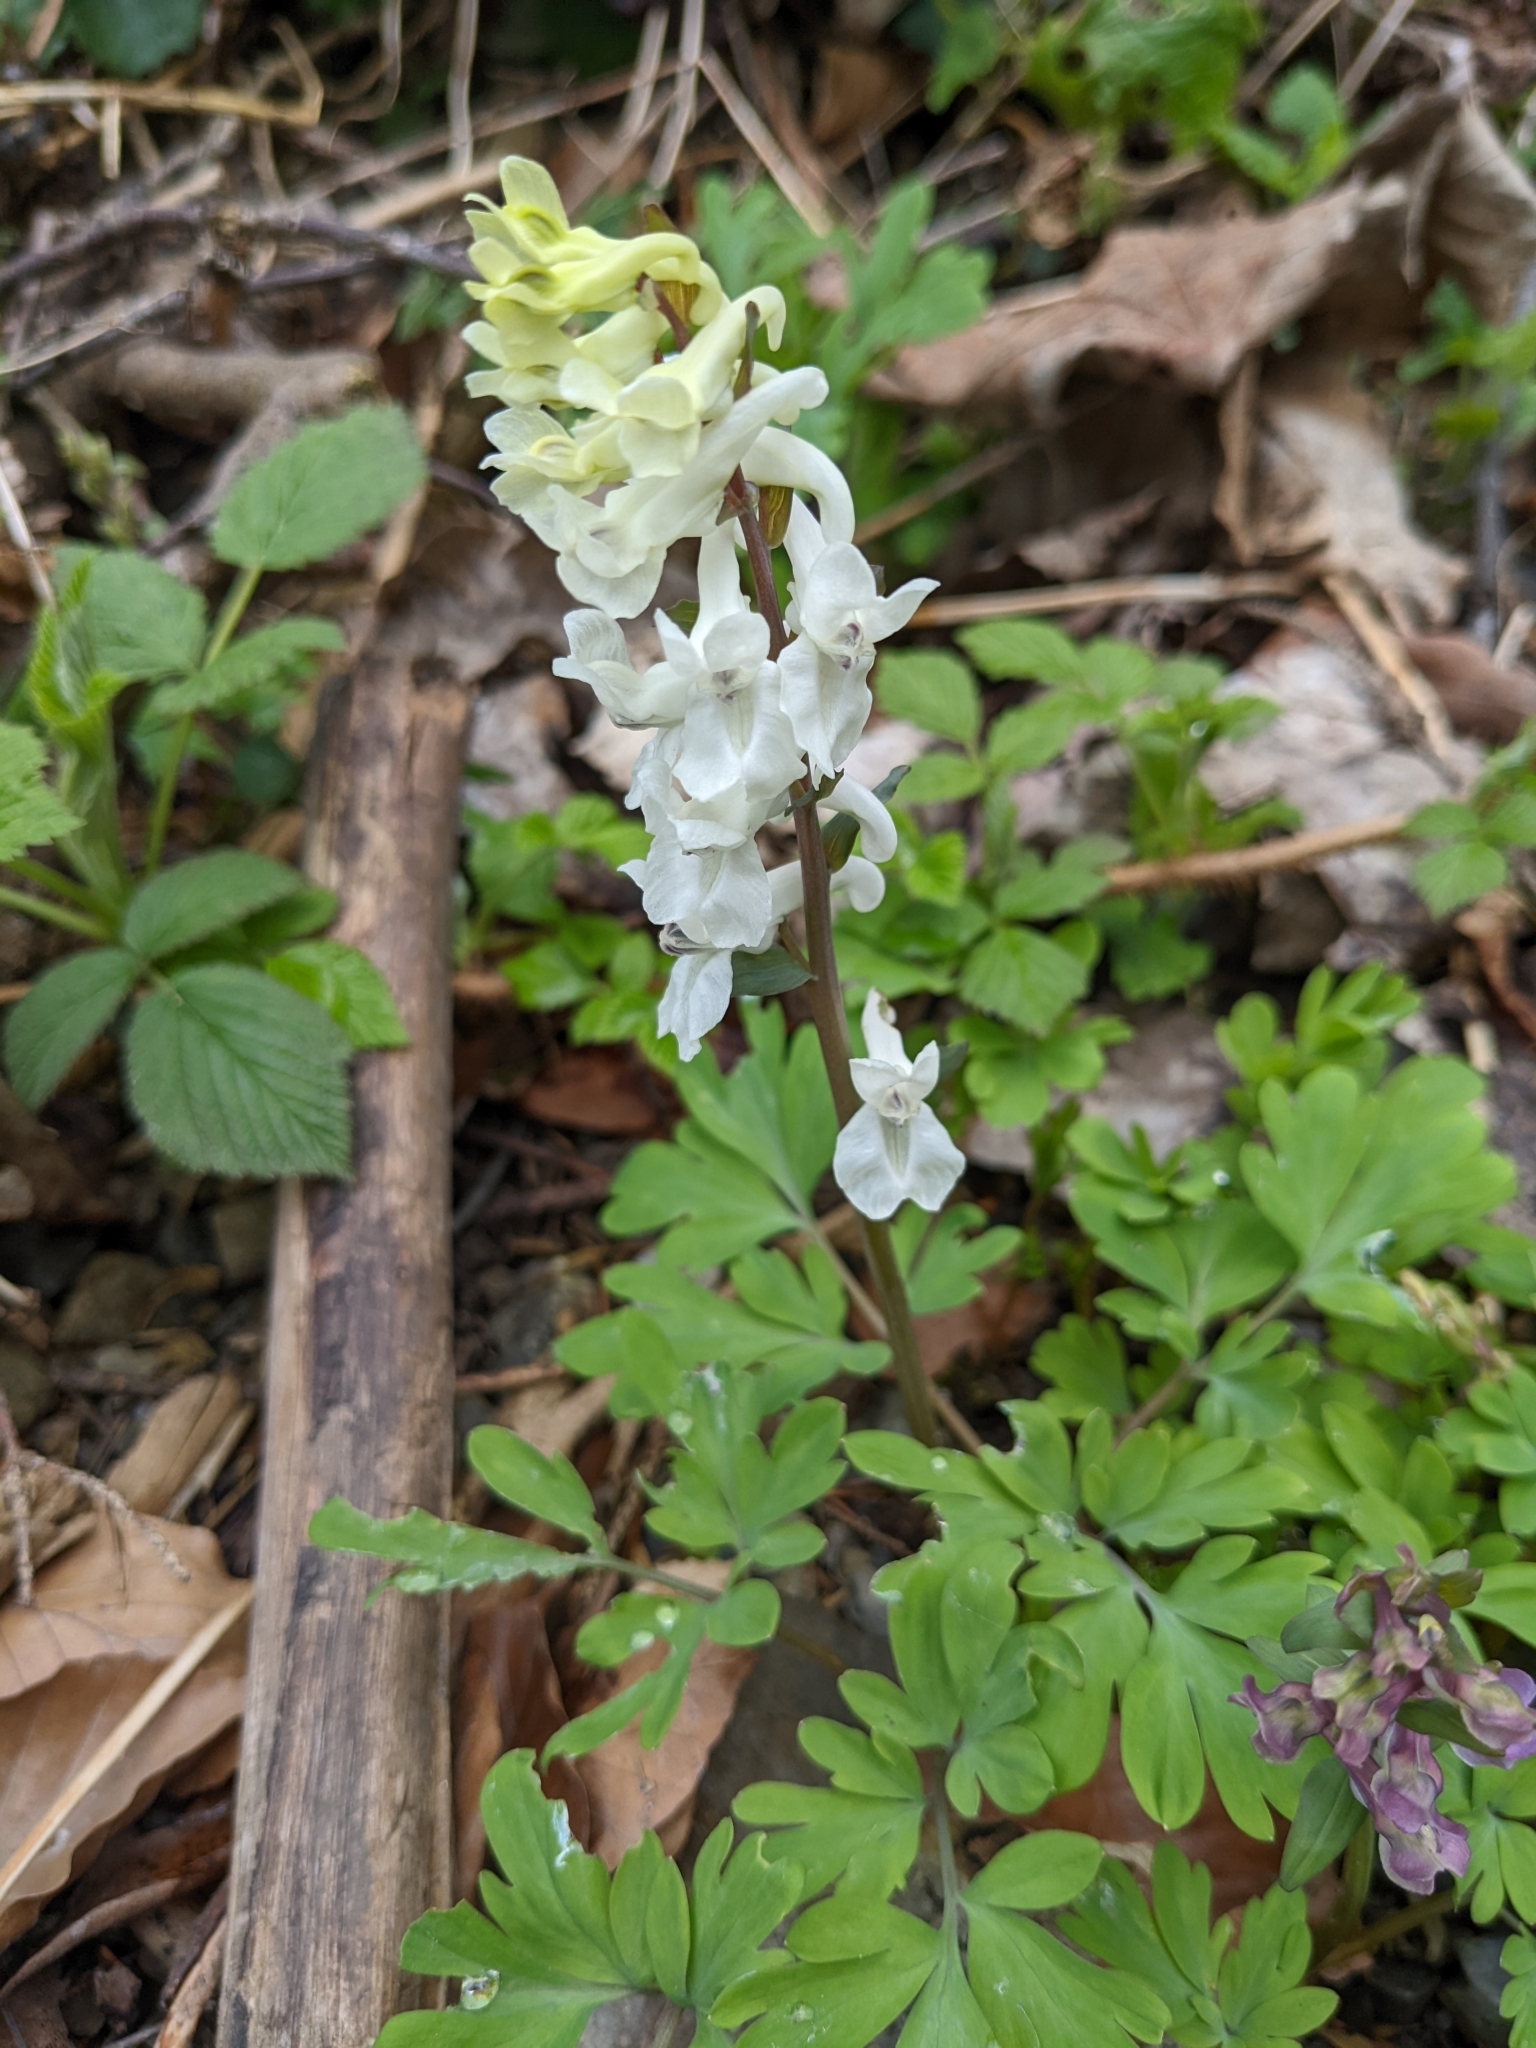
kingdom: Plantae
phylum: Tracheophyta
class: Magnoliopsida
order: Ranunculales
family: Papaveraceae
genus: Corydalis
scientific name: Corydalis cava
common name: Hollowroot
